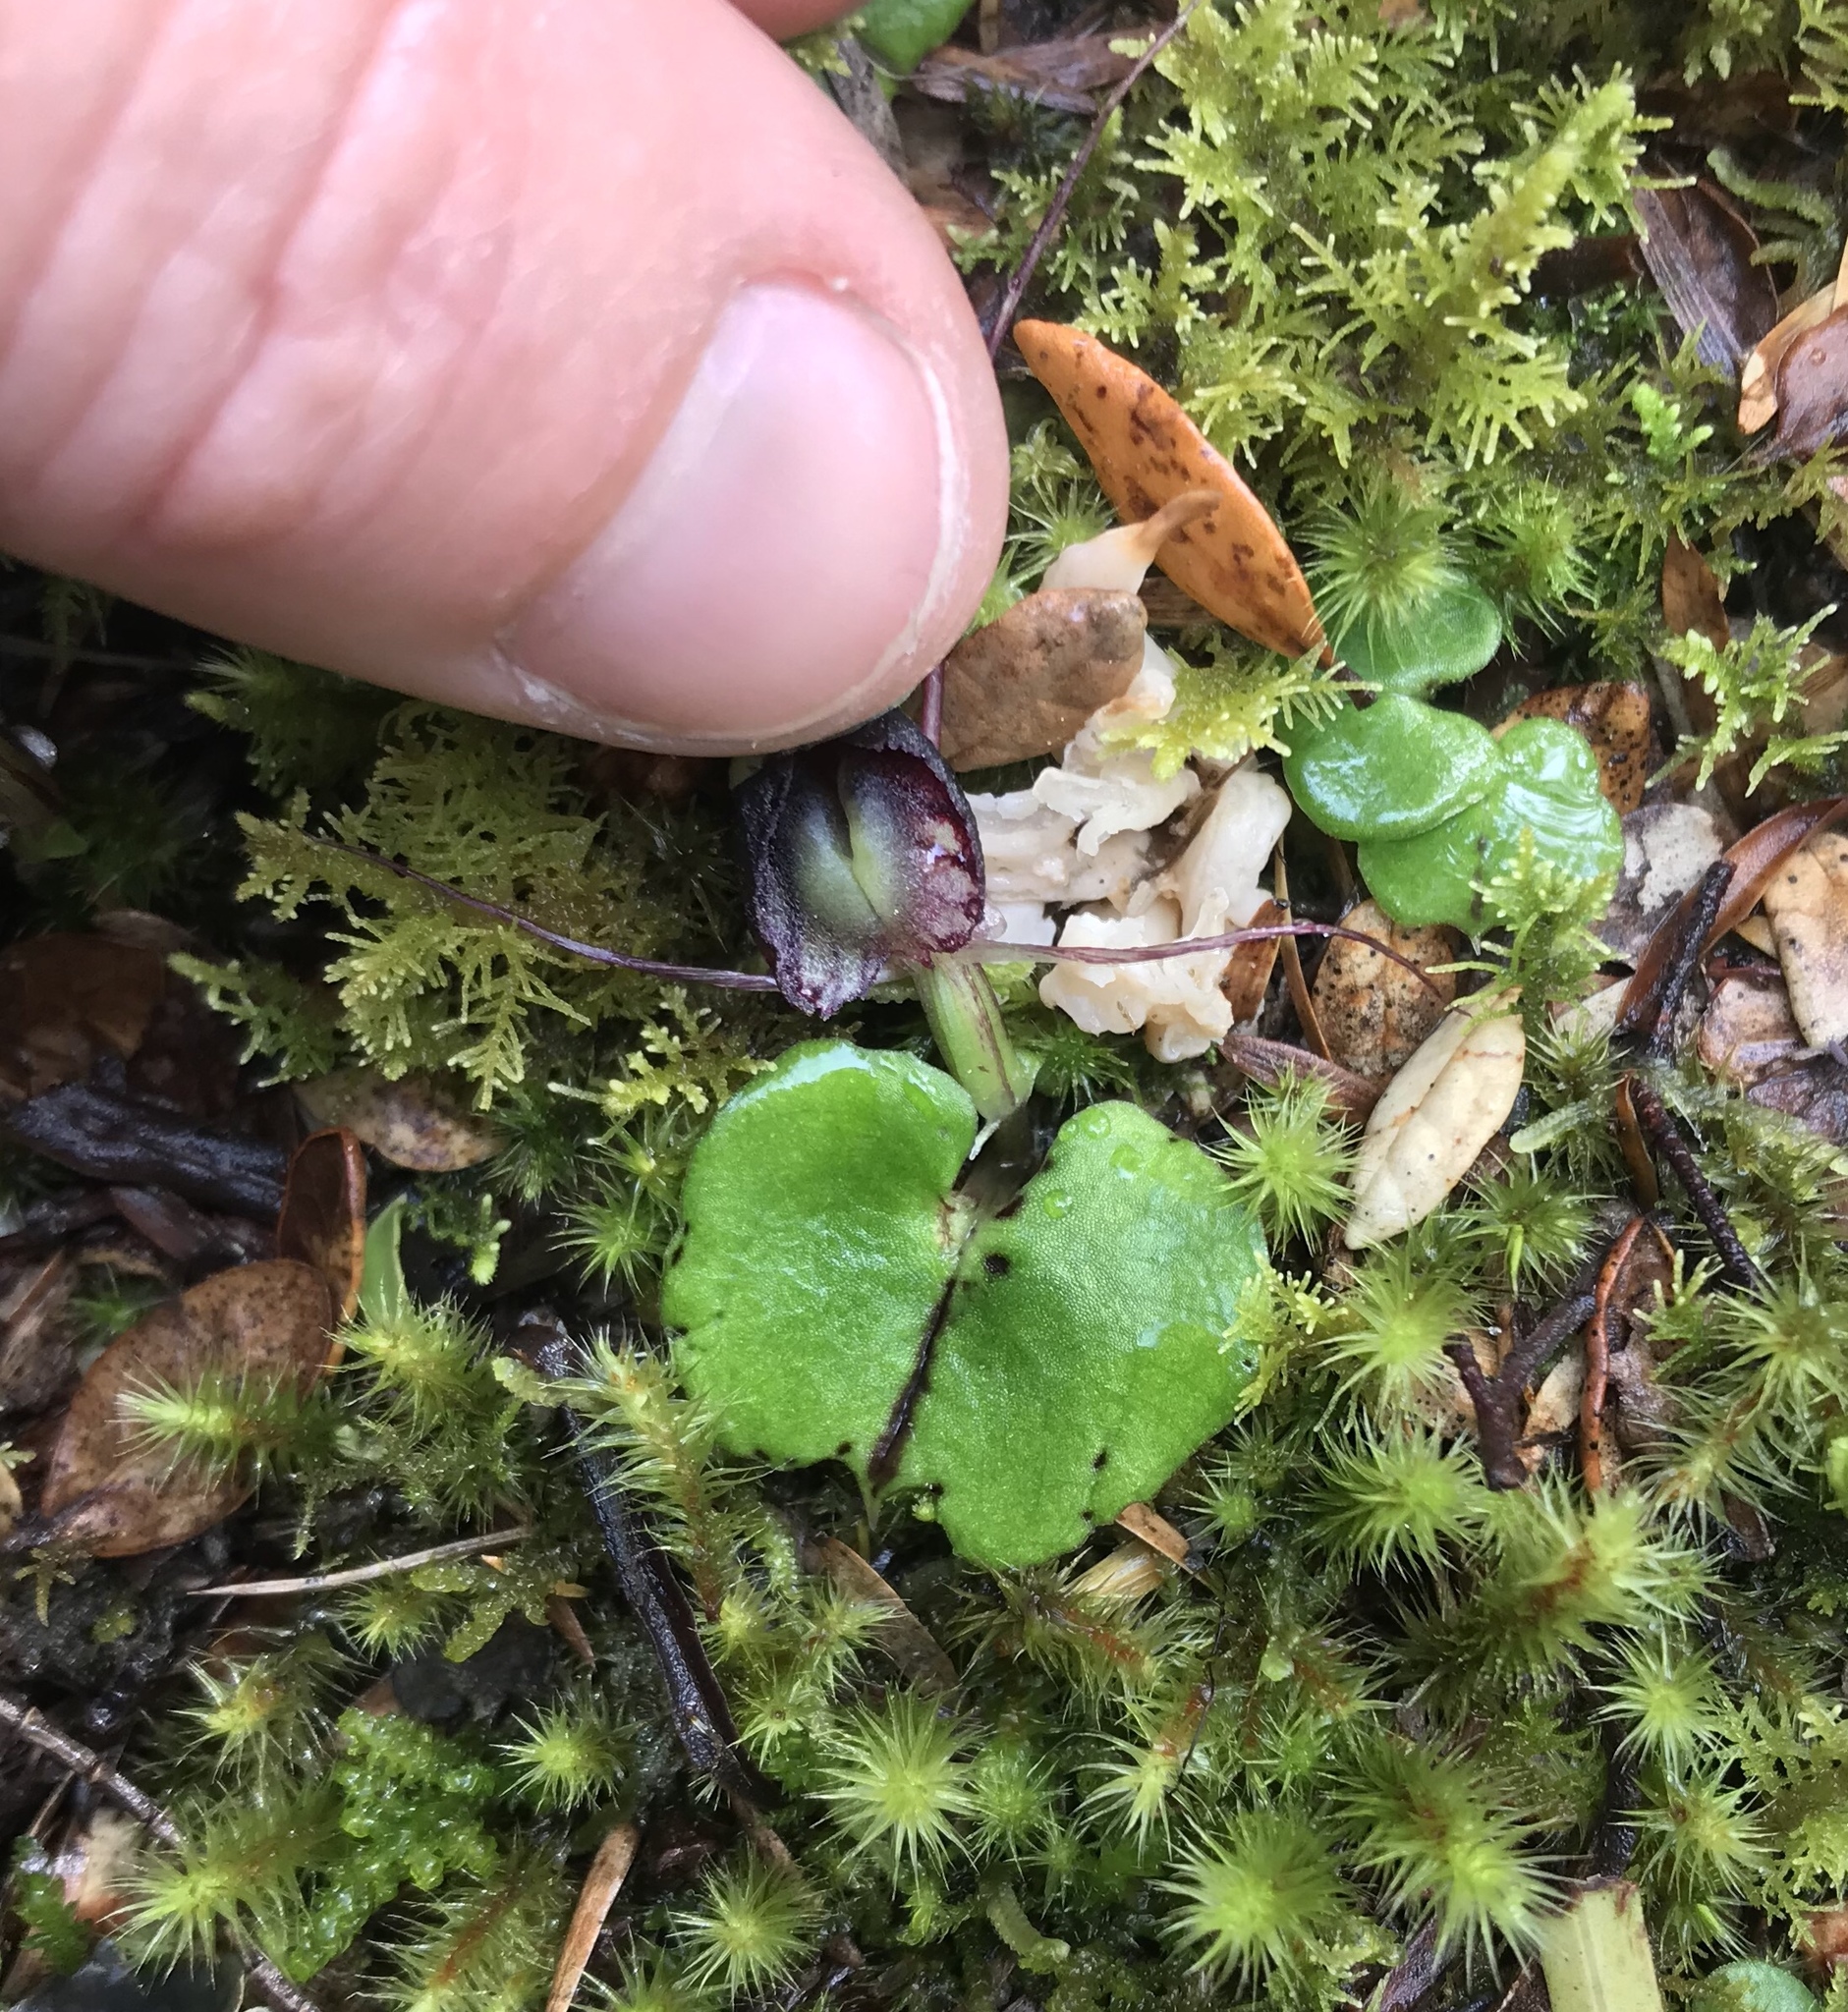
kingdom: Plantae
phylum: Tracheophyta
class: Liliopsida
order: Asparagales
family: Orchidaceae
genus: Corybas
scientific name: Corybas vitreus
